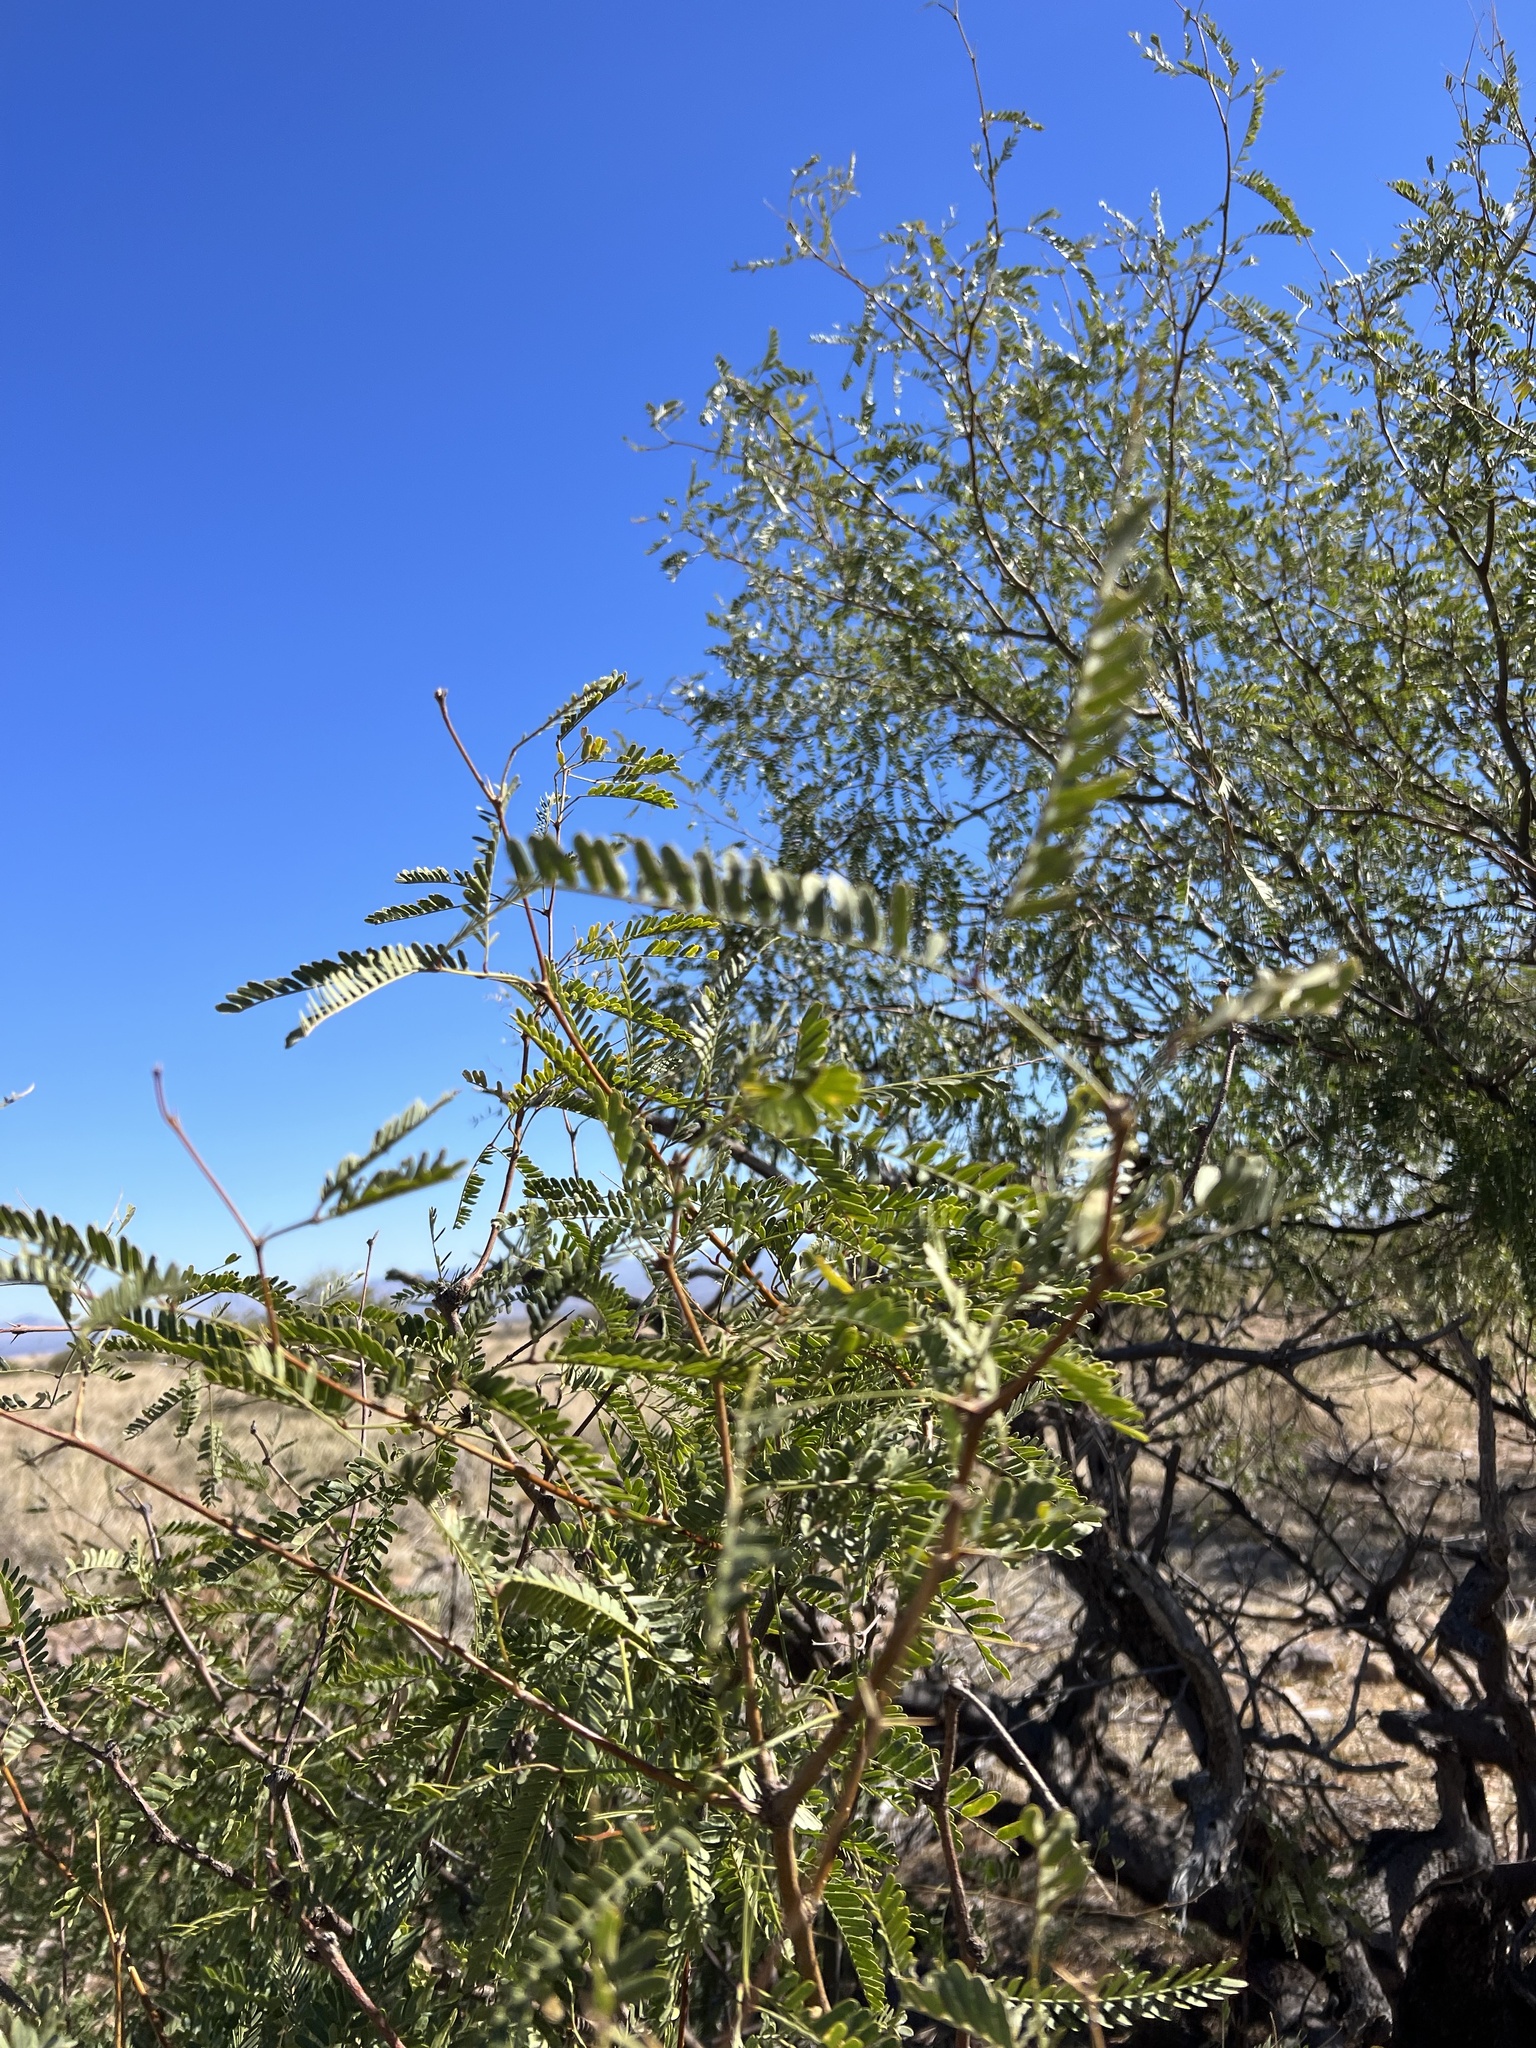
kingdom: Plantae
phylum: Tracheophyta
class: Magnoliopsida
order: Fabales
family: Fabaceae
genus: Prosopis
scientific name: Prosopis velutina
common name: Velvet mesquite
